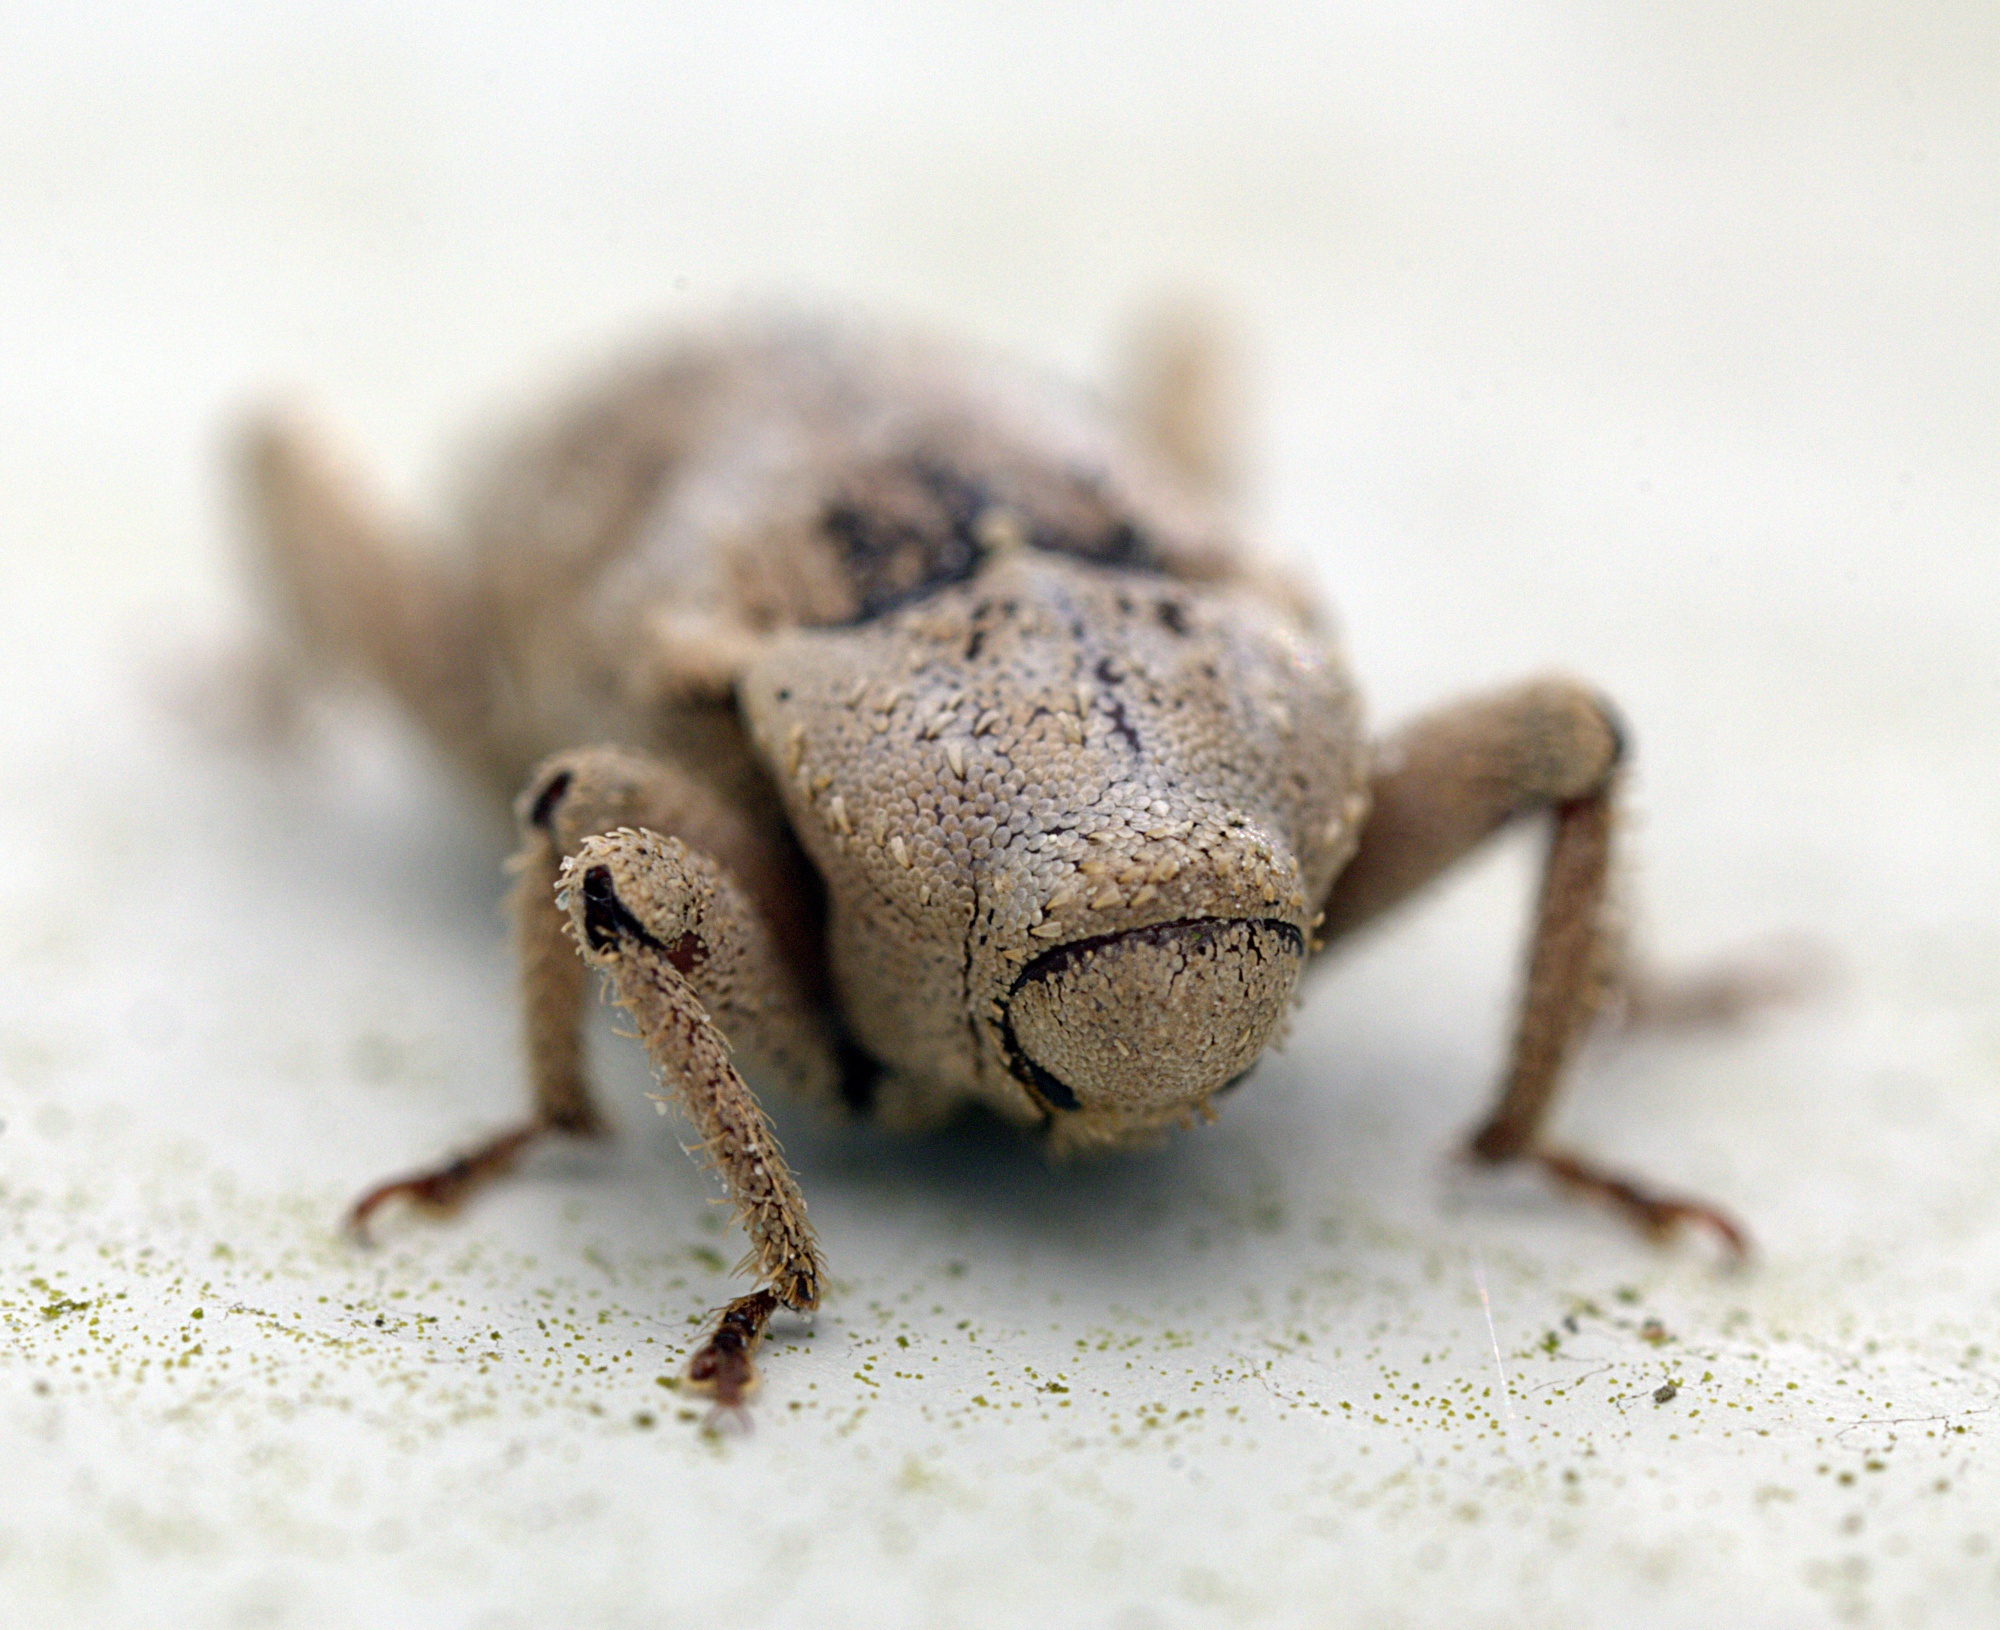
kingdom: Animalia
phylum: Arthropoda
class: Insecta
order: Coleoptera
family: Curculionidae
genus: Mitrastethus
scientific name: Mitrastethus baridioides
